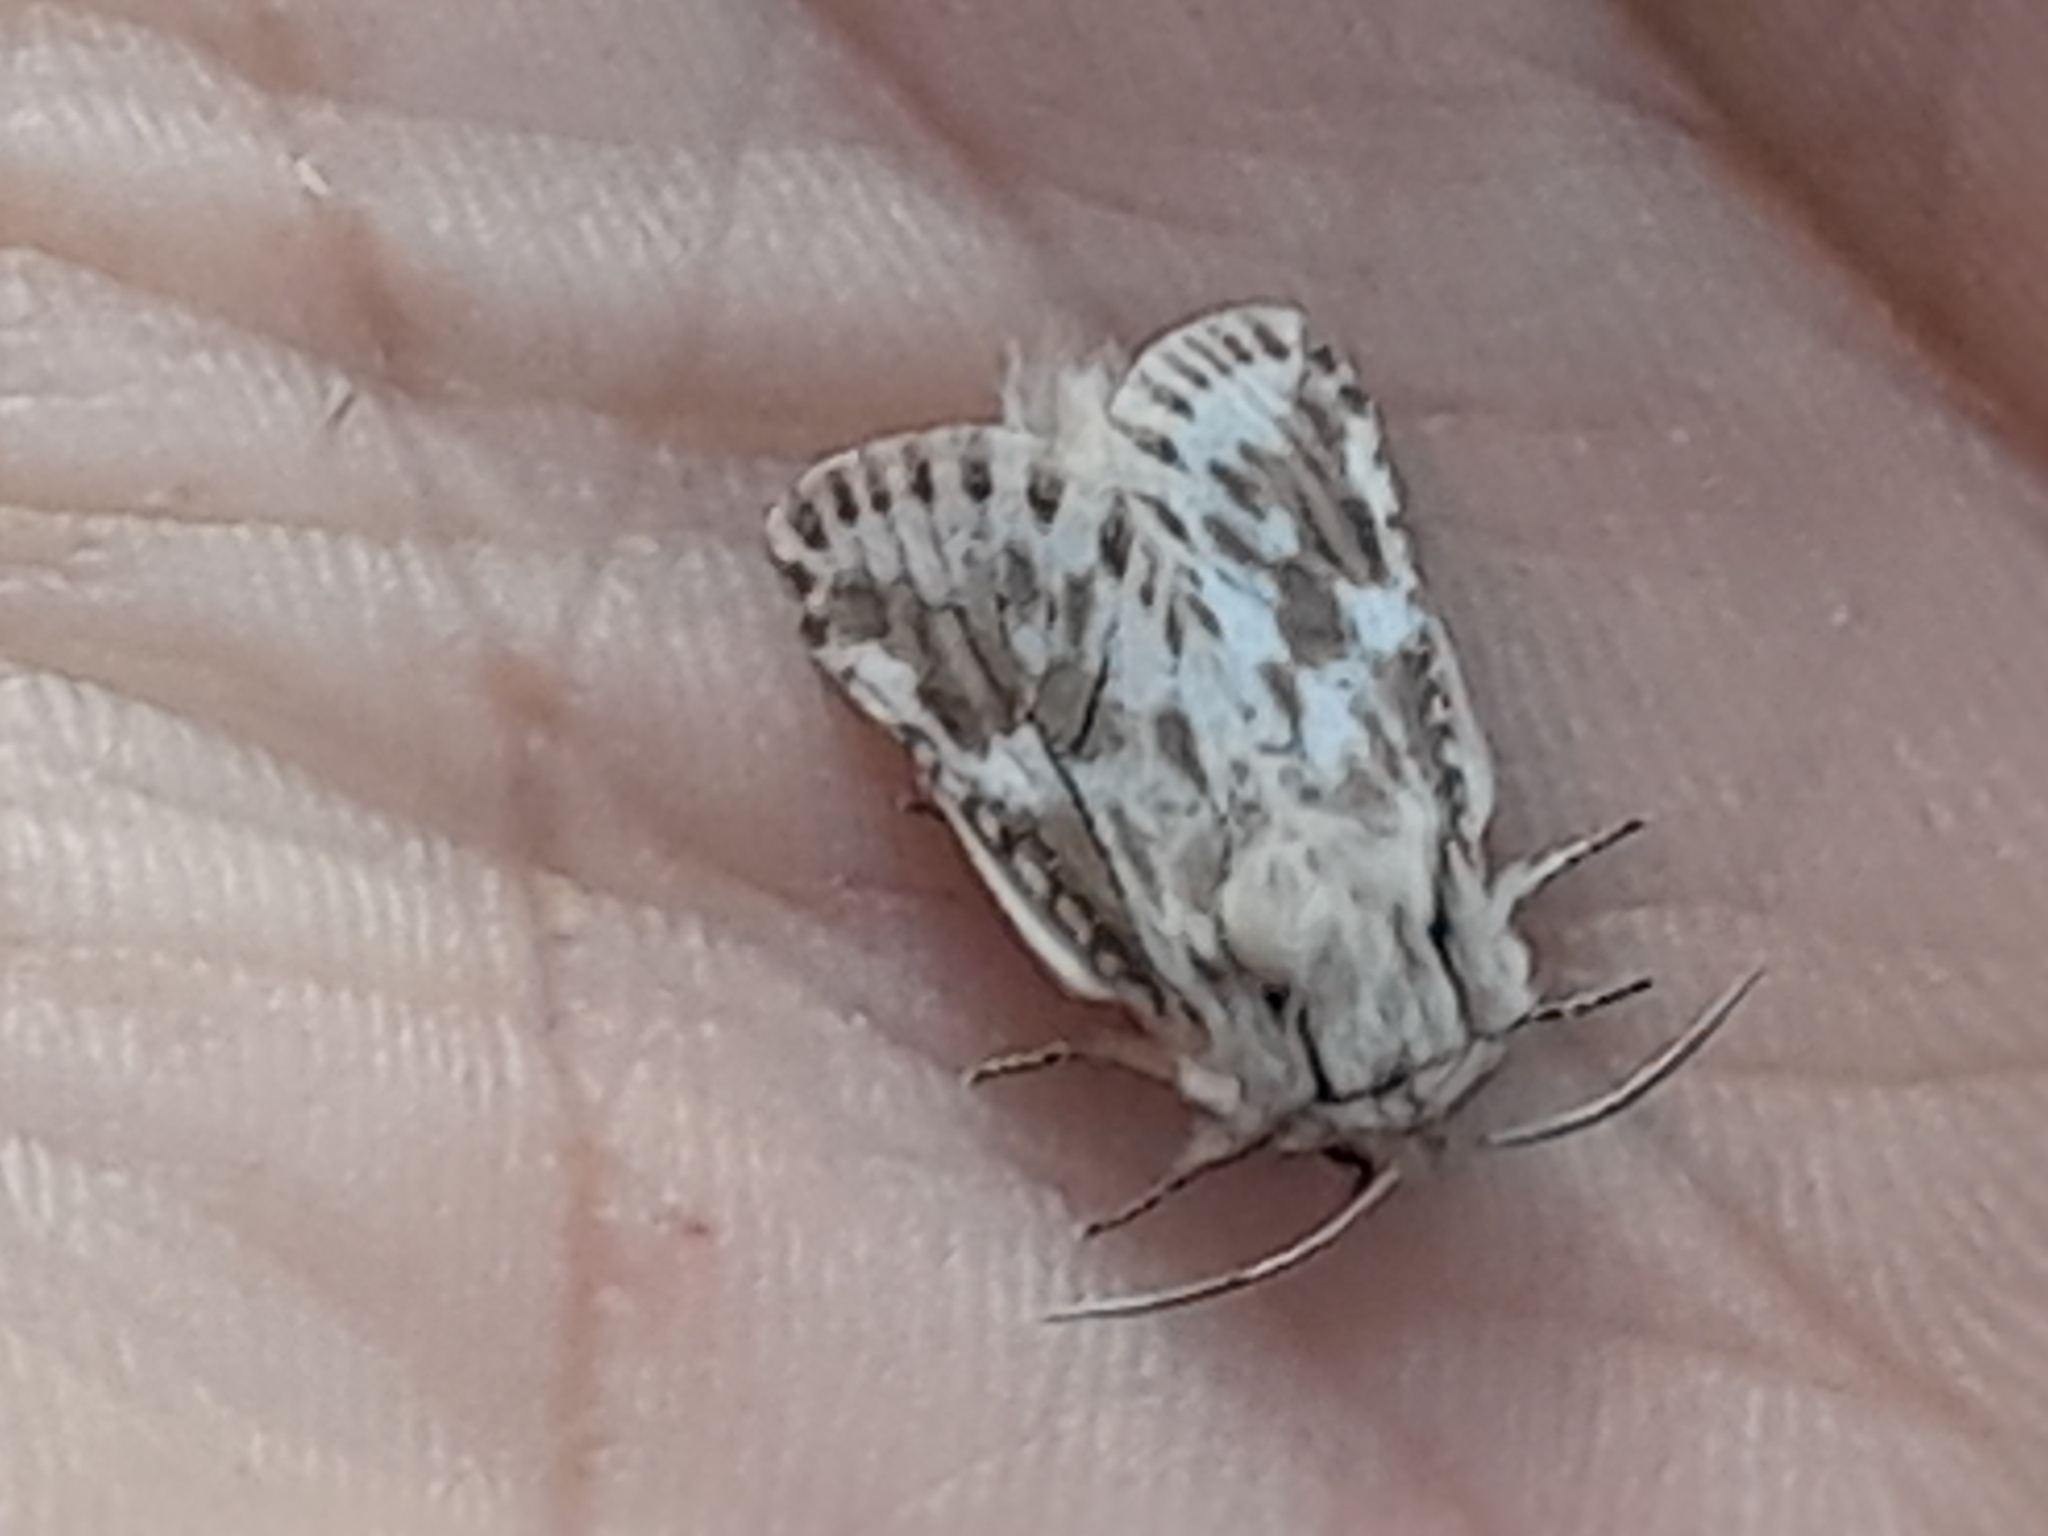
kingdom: Animalia
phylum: Arthropoda
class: Insecta
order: Lepidoptera
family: Cossidae
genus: Dyspessa
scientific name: Dyspessa ulula
